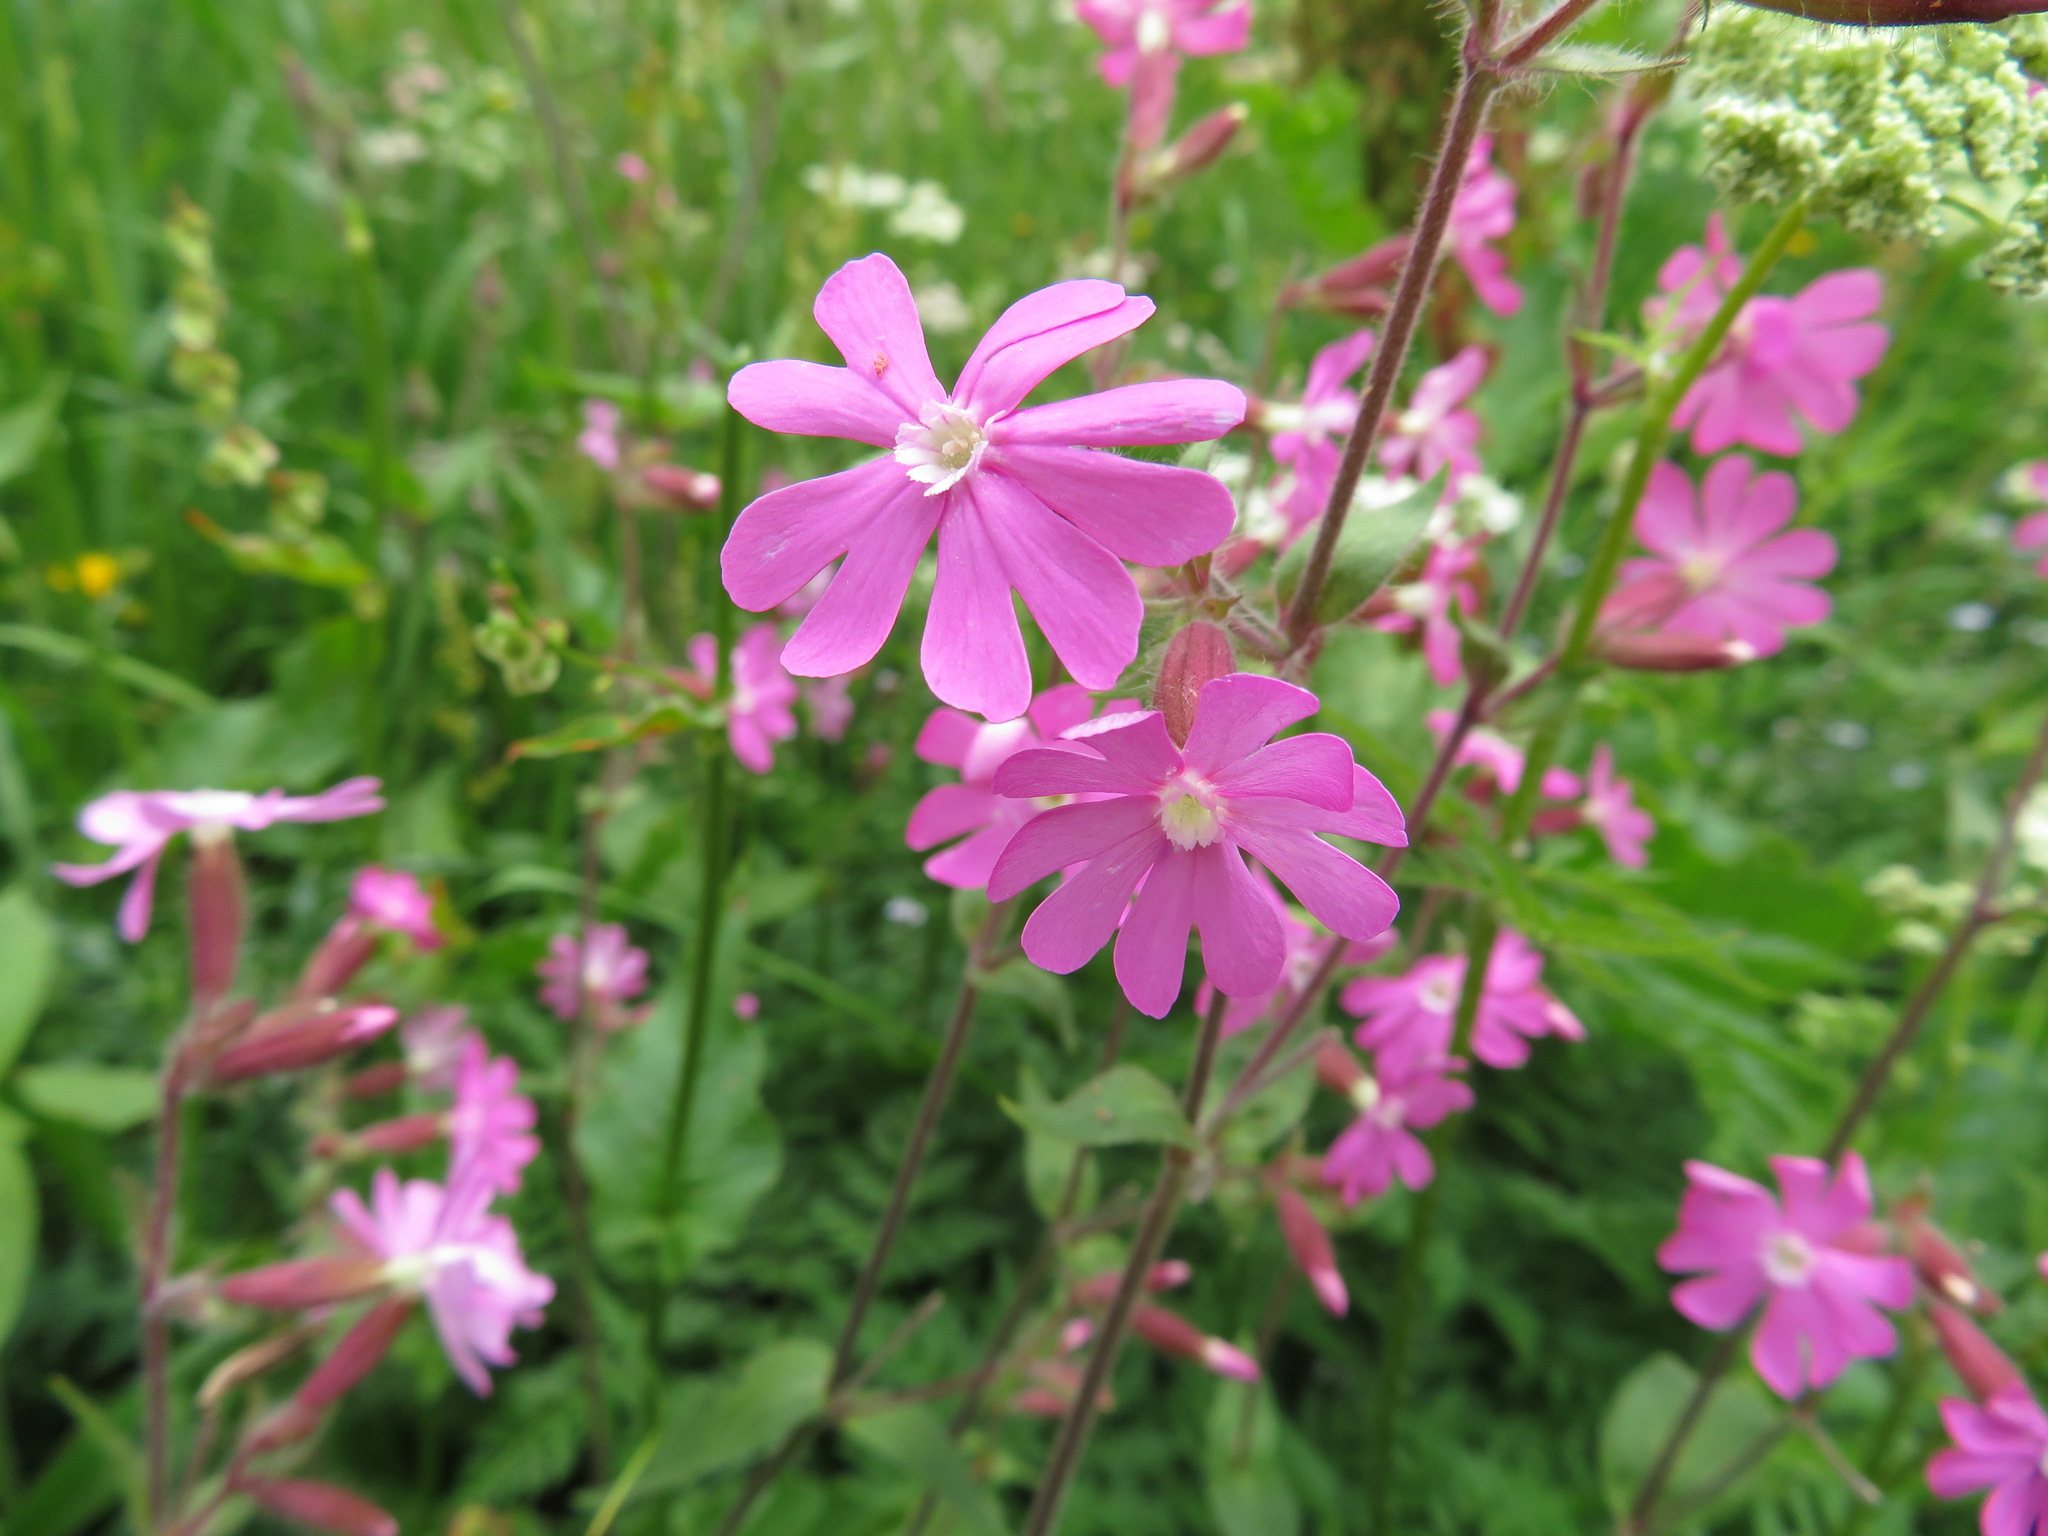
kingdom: Plantae
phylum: Tracheophyta
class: Magnoliopsida
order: Caryophyllales
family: Caryophyllaceae
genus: Silene
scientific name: Silene dioica
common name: Red campion
